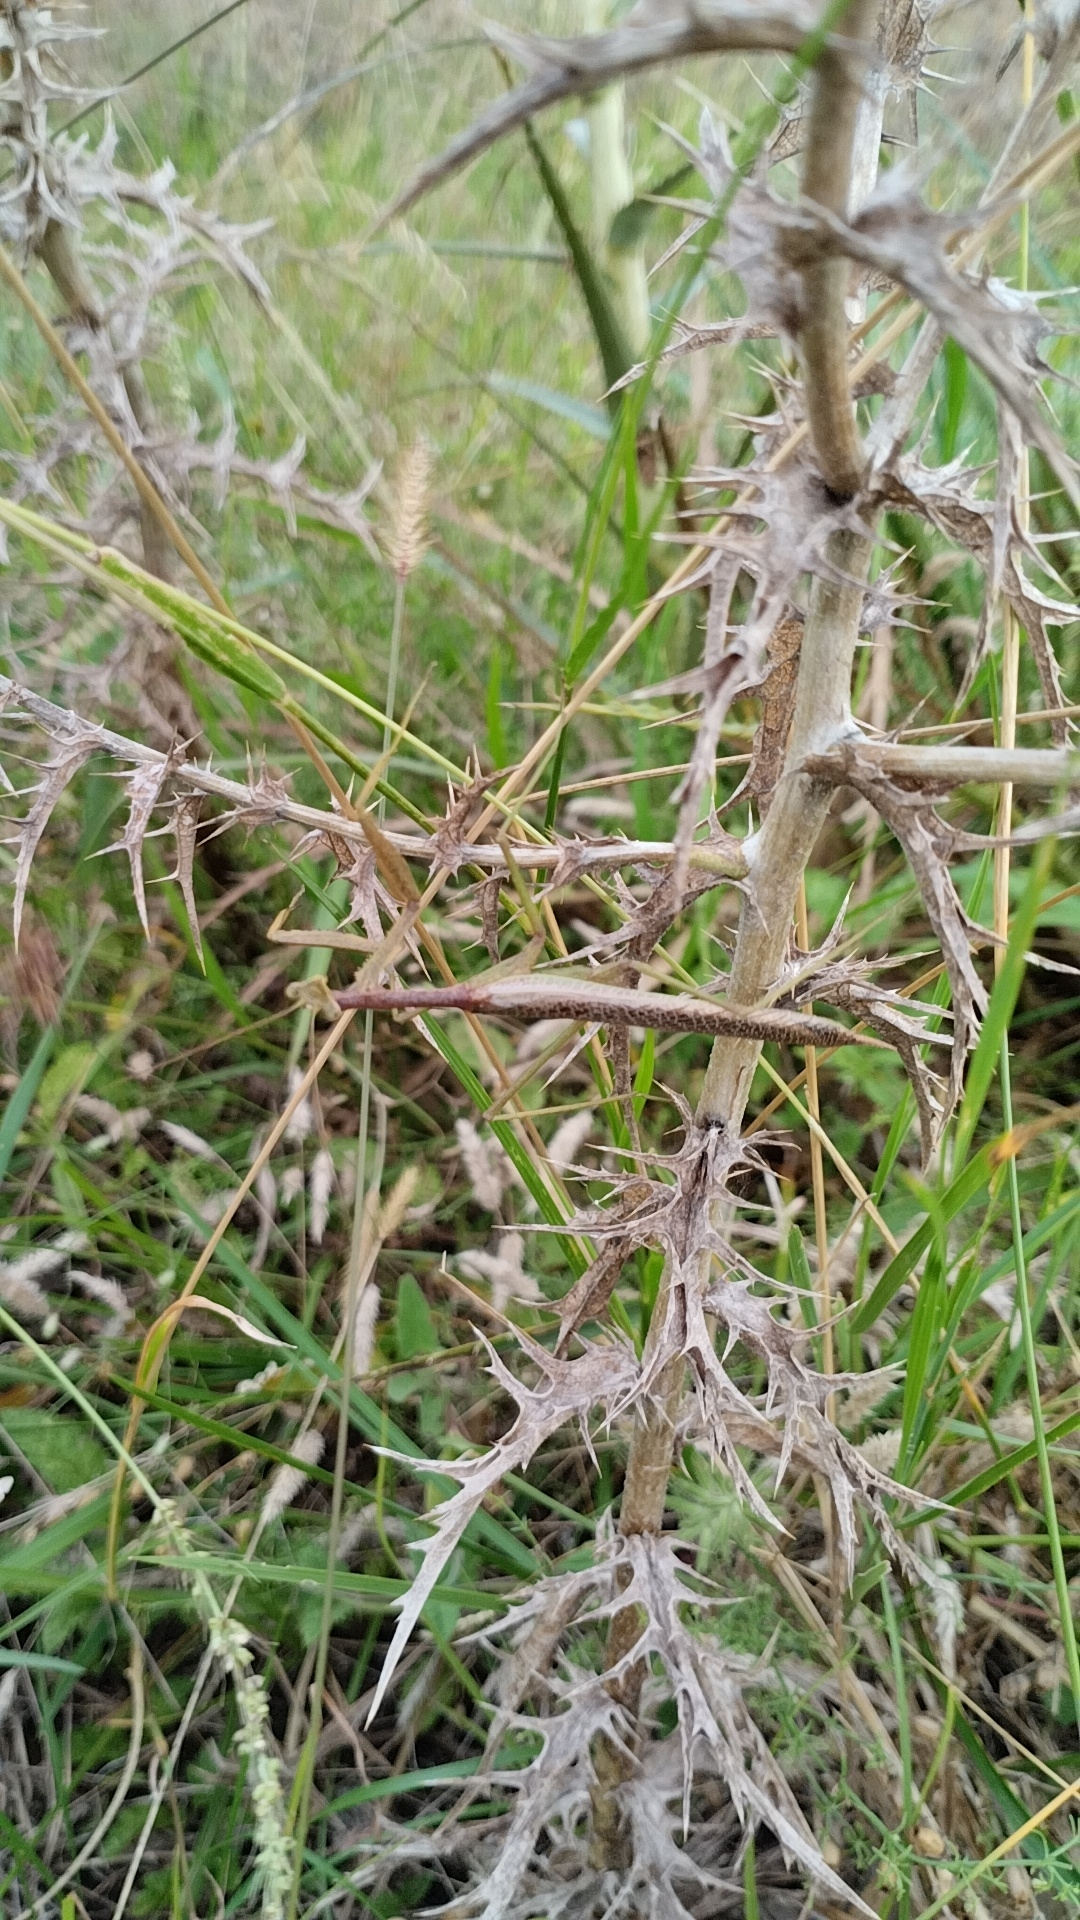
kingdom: Animalia
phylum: Arthropoda
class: Insecta
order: Mantodea
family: Coptopterygidae
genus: Coptopteryx
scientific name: Coptopteryx gayi
